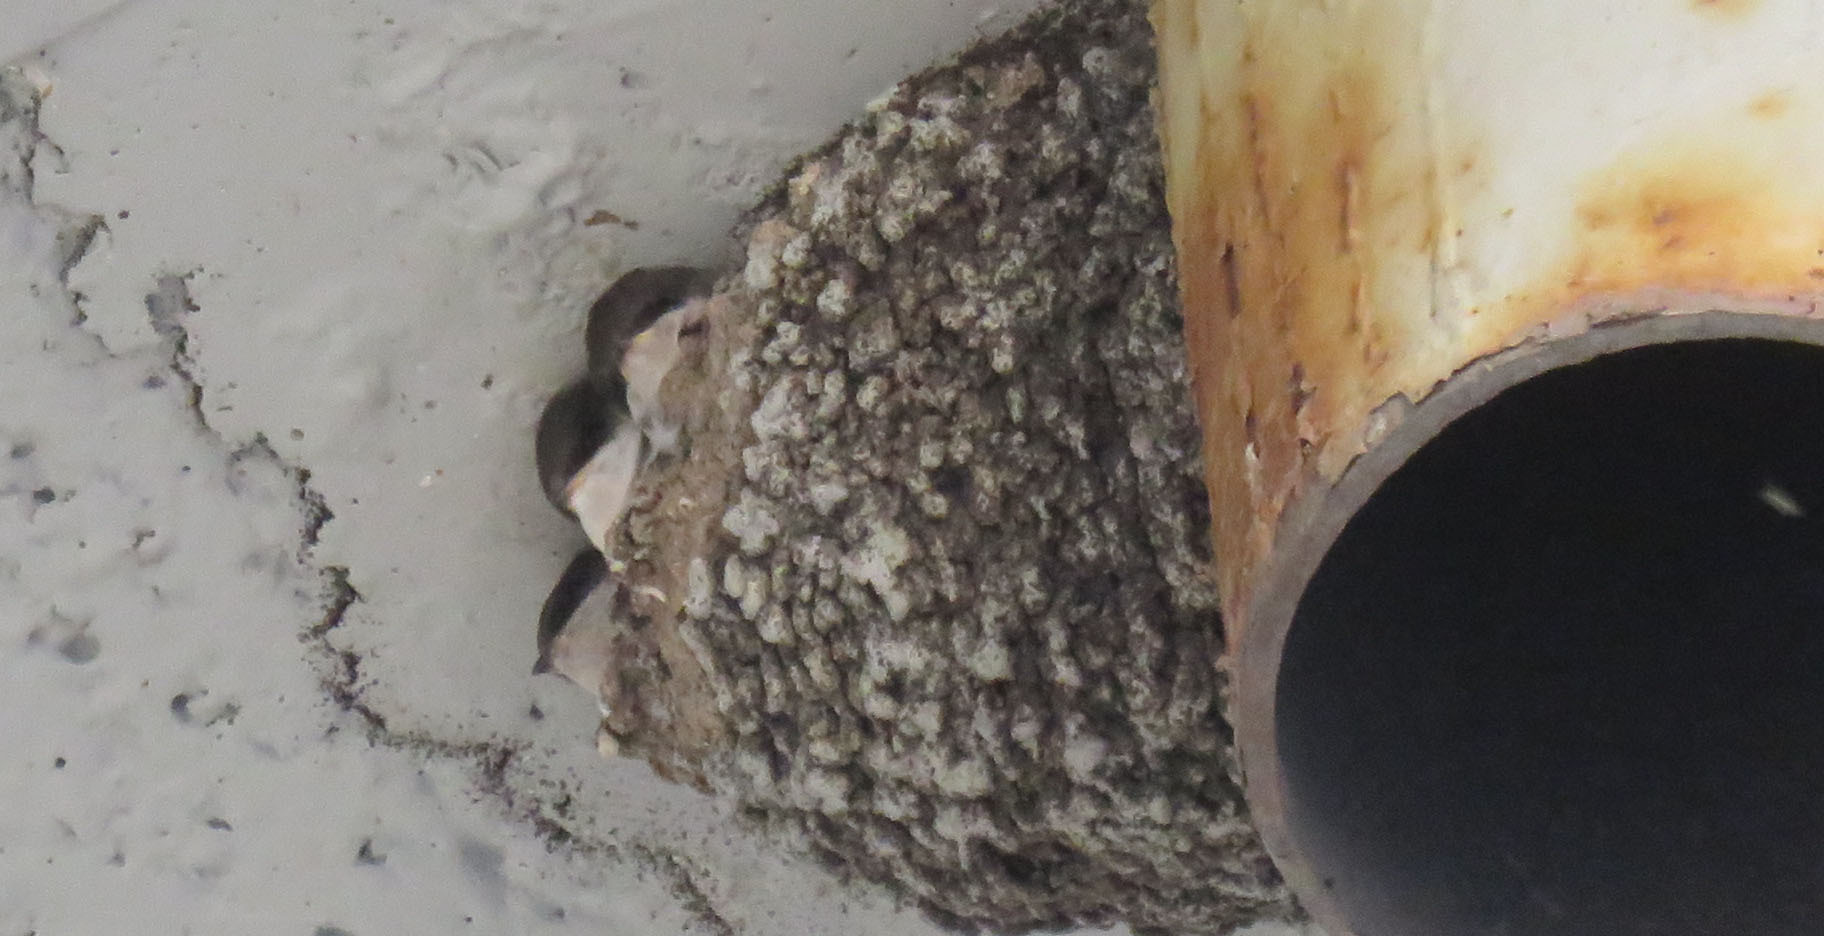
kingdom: Animalia
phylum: Chordata
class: Aves
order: Passeriformes
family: Hirundinidae
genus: Delichon
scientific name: Delichon urbicum
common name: Common house martin
